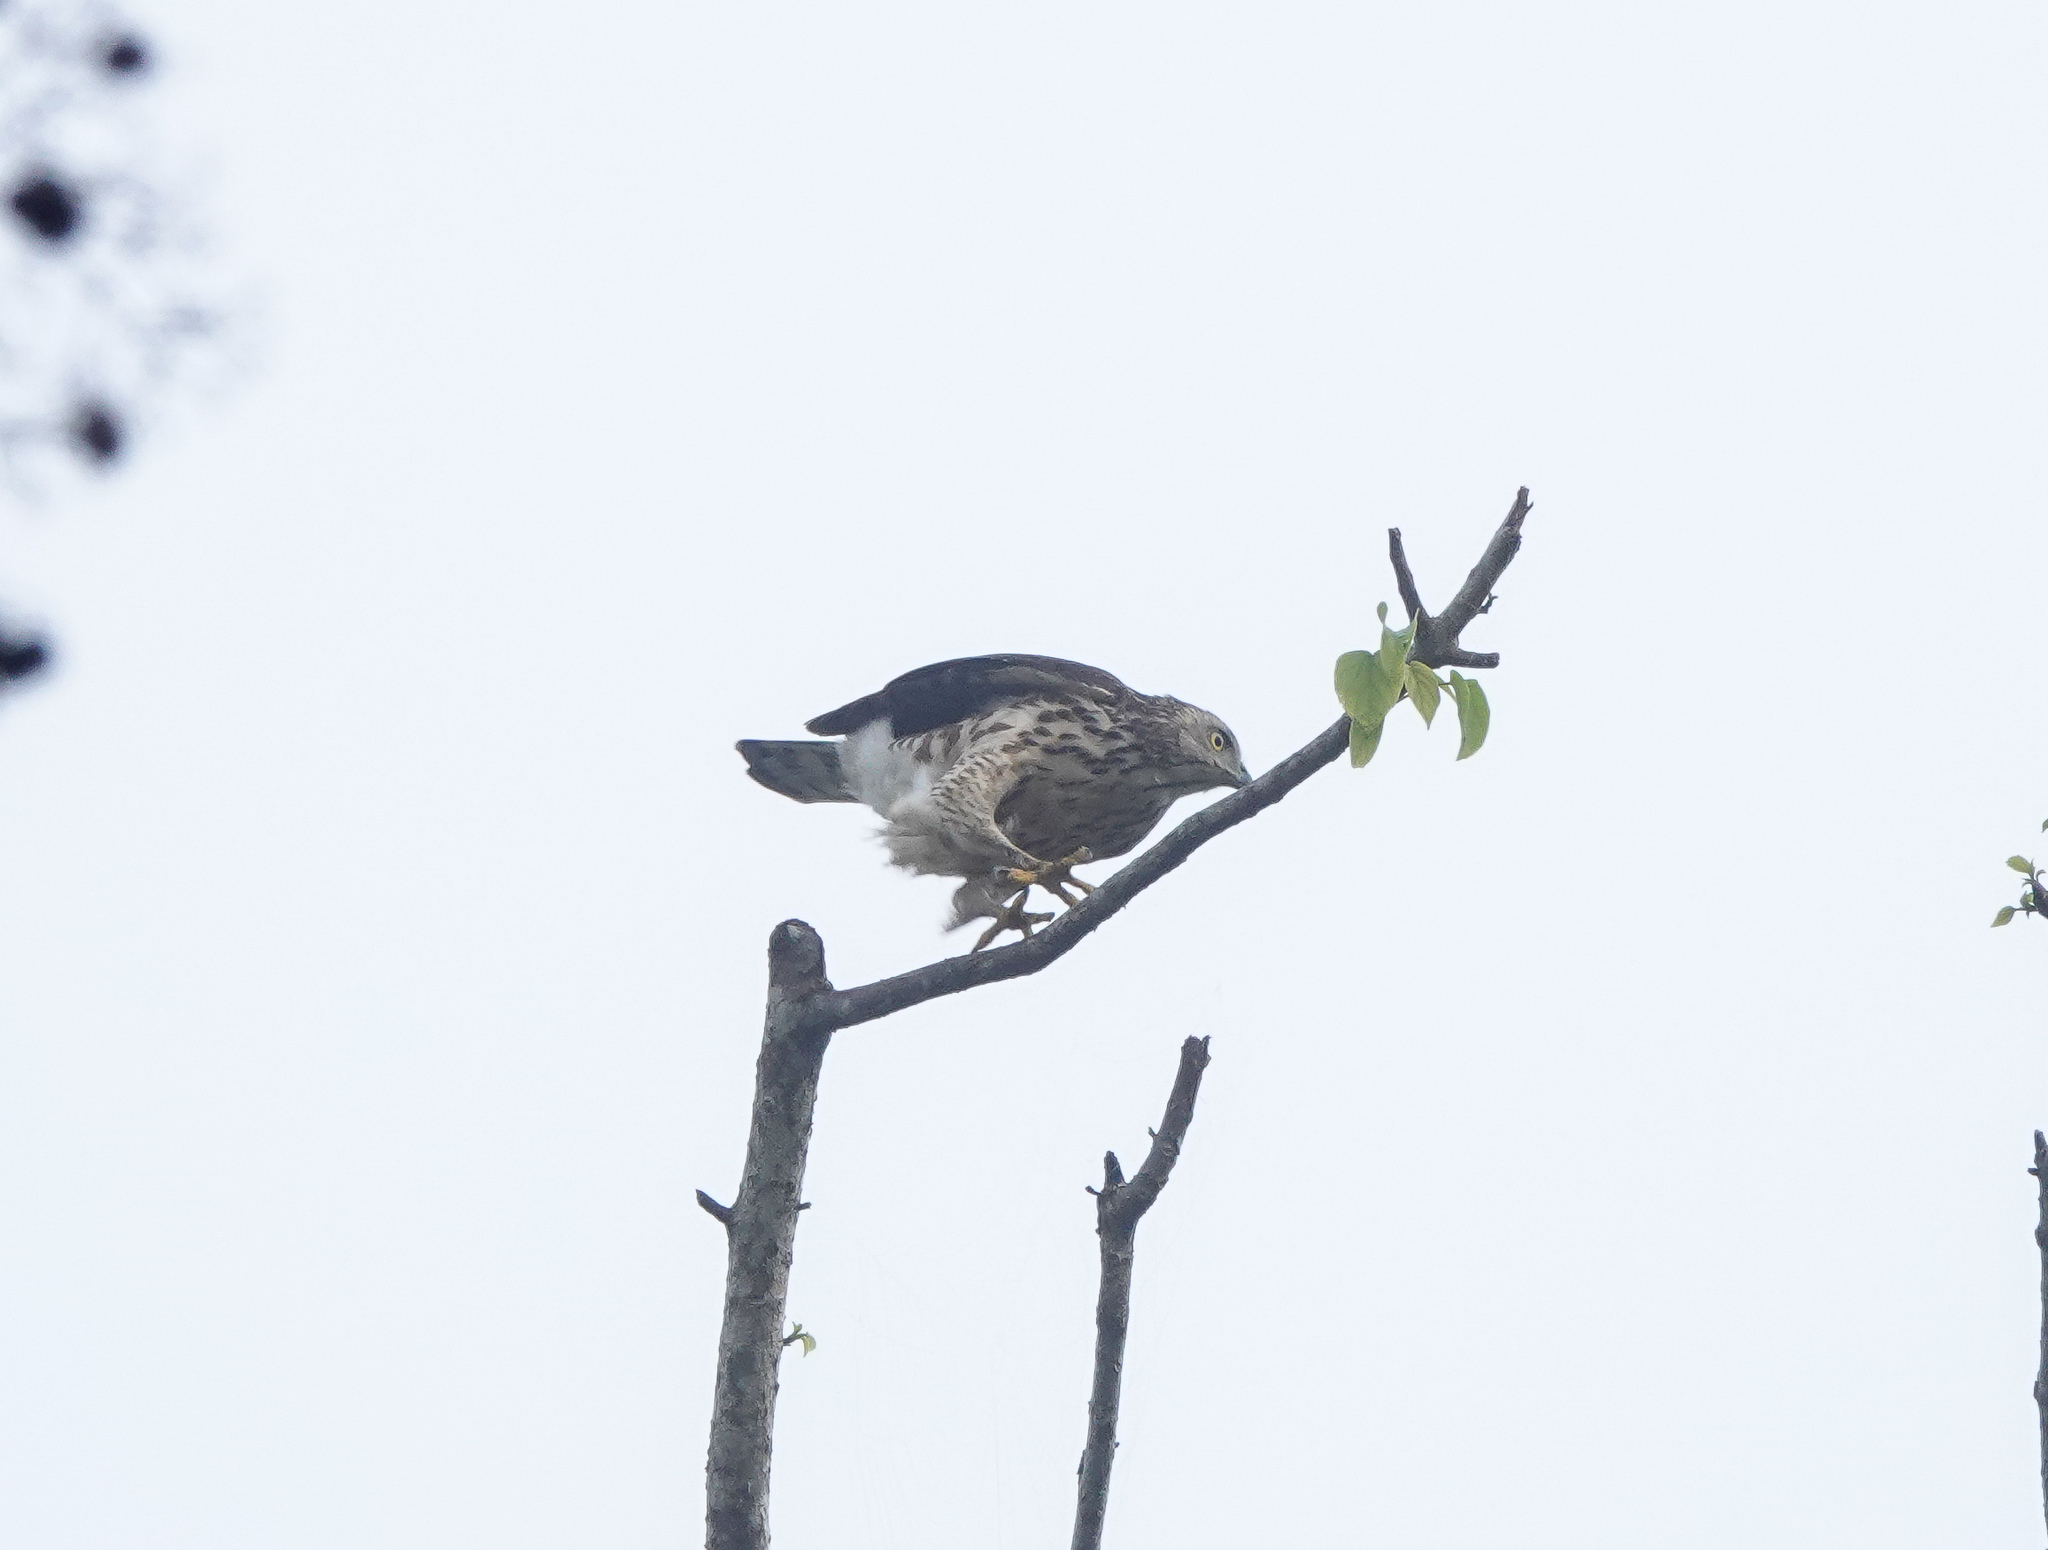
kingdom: Animalia
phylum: Chordata
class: Aves
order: Accipitriformes
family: Accipitridae
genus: Accipiter
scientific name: Accipiter trivirgatus
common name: Crested goshawk
